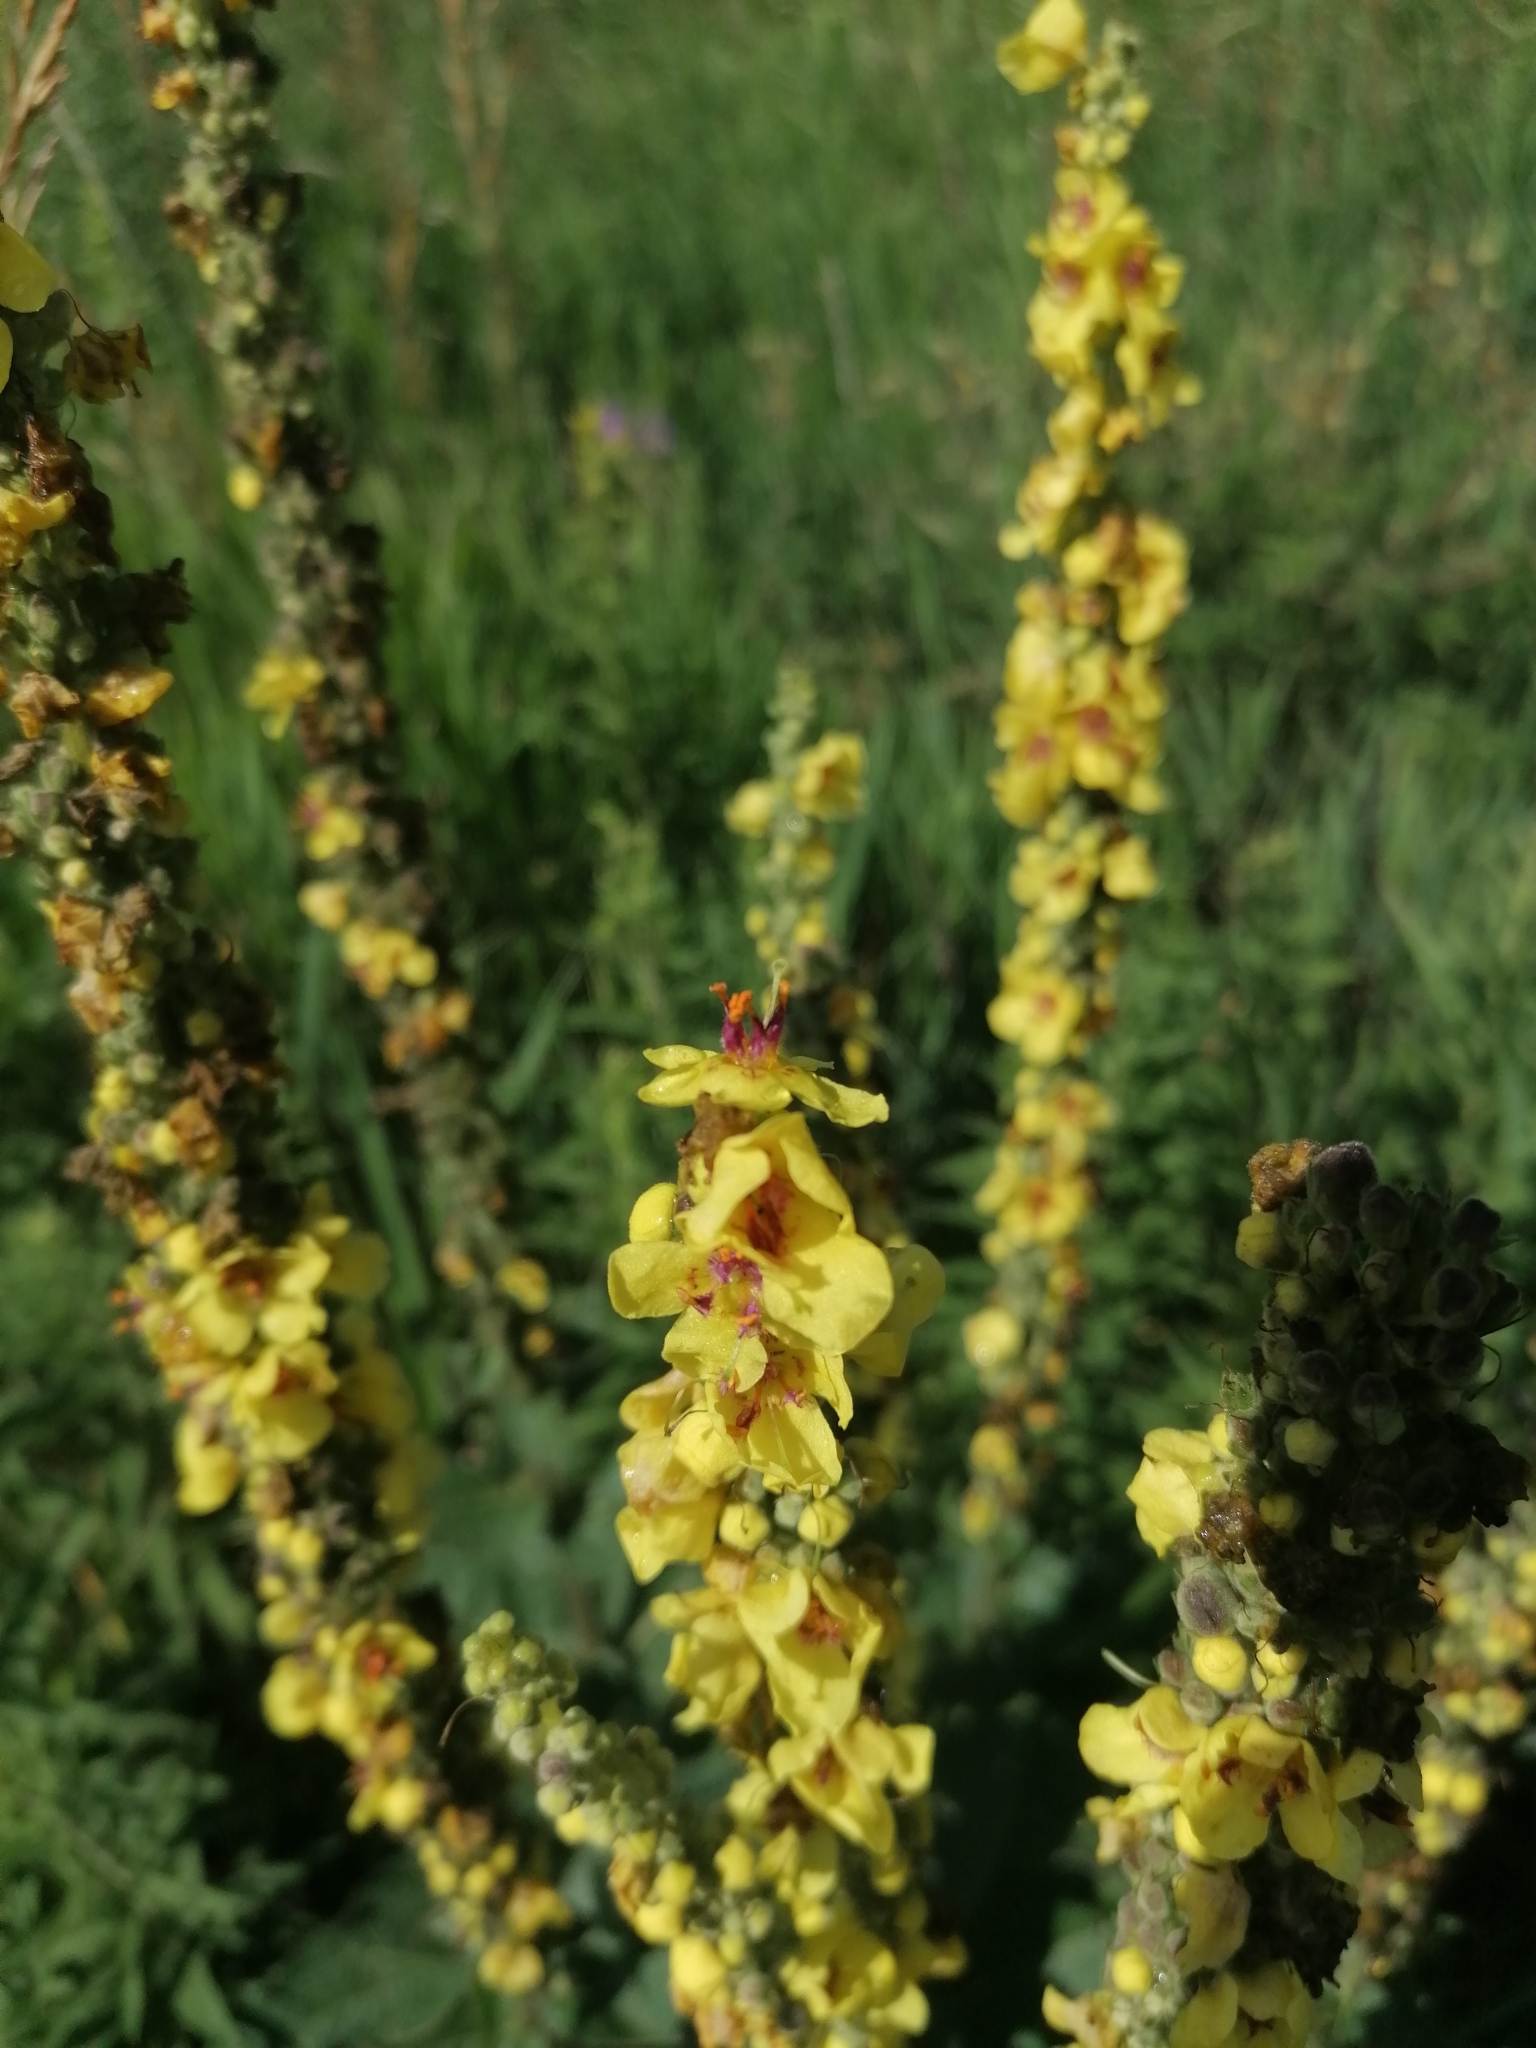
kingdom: Plantae
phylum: Tracheophyta
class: Magnoliopsida
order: Lamiales
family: Scrophulariaceae
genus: Verbascum
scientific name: Verbascum nigrum
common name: Dark mullein
